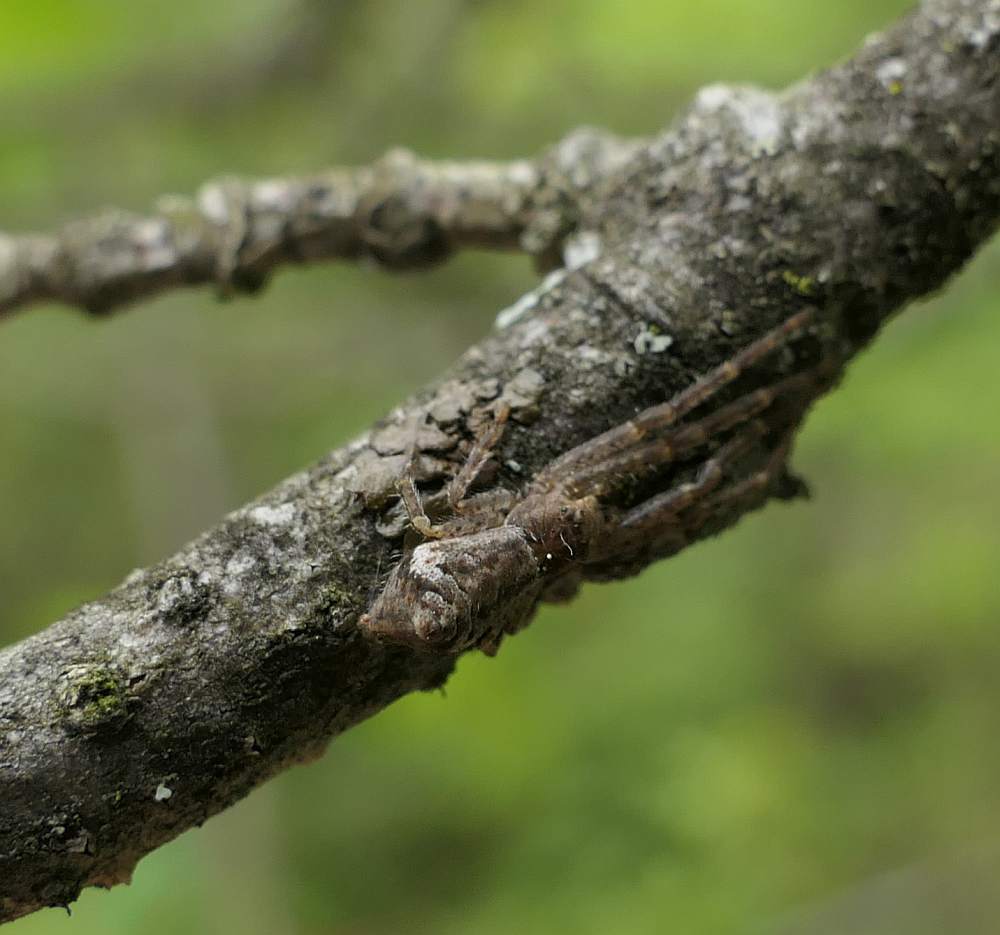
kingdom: Animalia
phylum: Arthropoda
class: Arachnida
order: Araneae
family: Thomisidae
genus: Tmarus
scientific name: Tmarus angulatus
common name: Tuberculated crab spider
